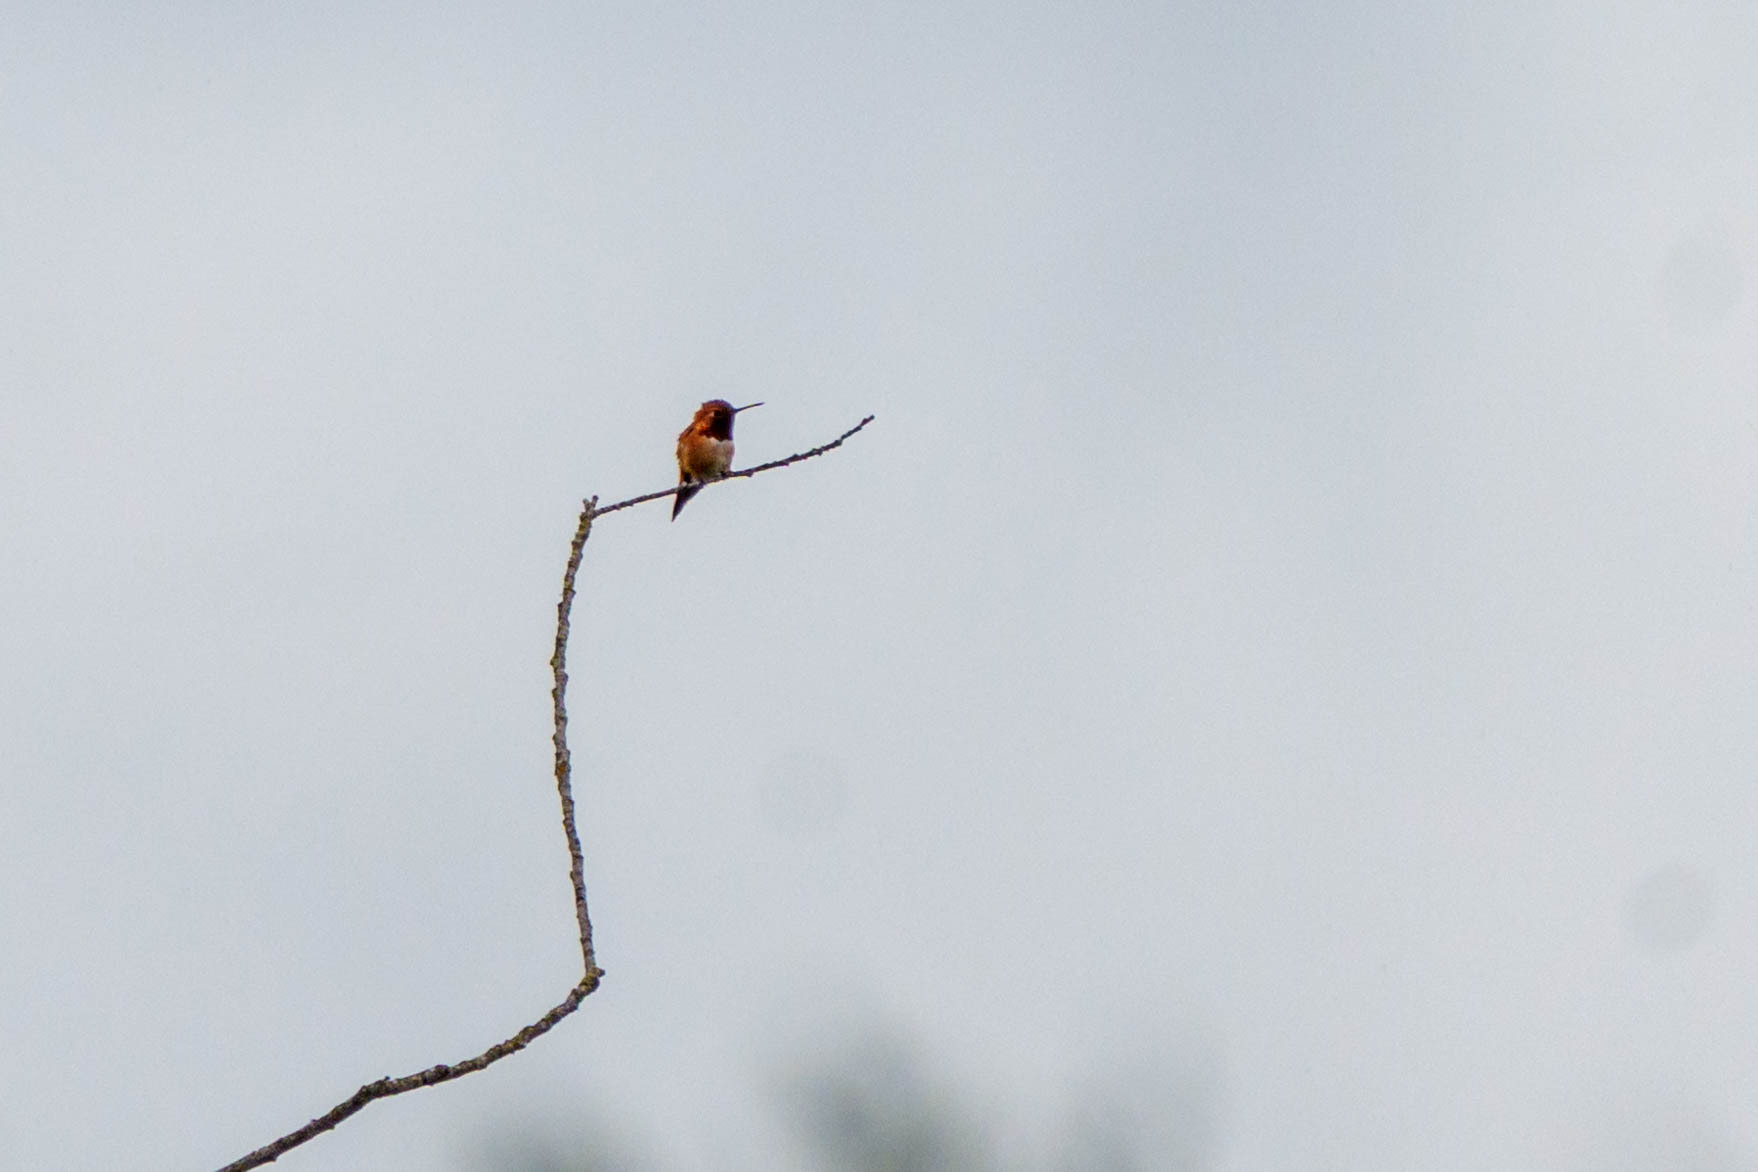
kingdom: Animalia
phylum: Chordata
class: Aves
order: Apodiformes
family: Trochilidae
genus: Selasphorus
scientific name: Selasphorus rufus
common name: Rufous hummingbird
